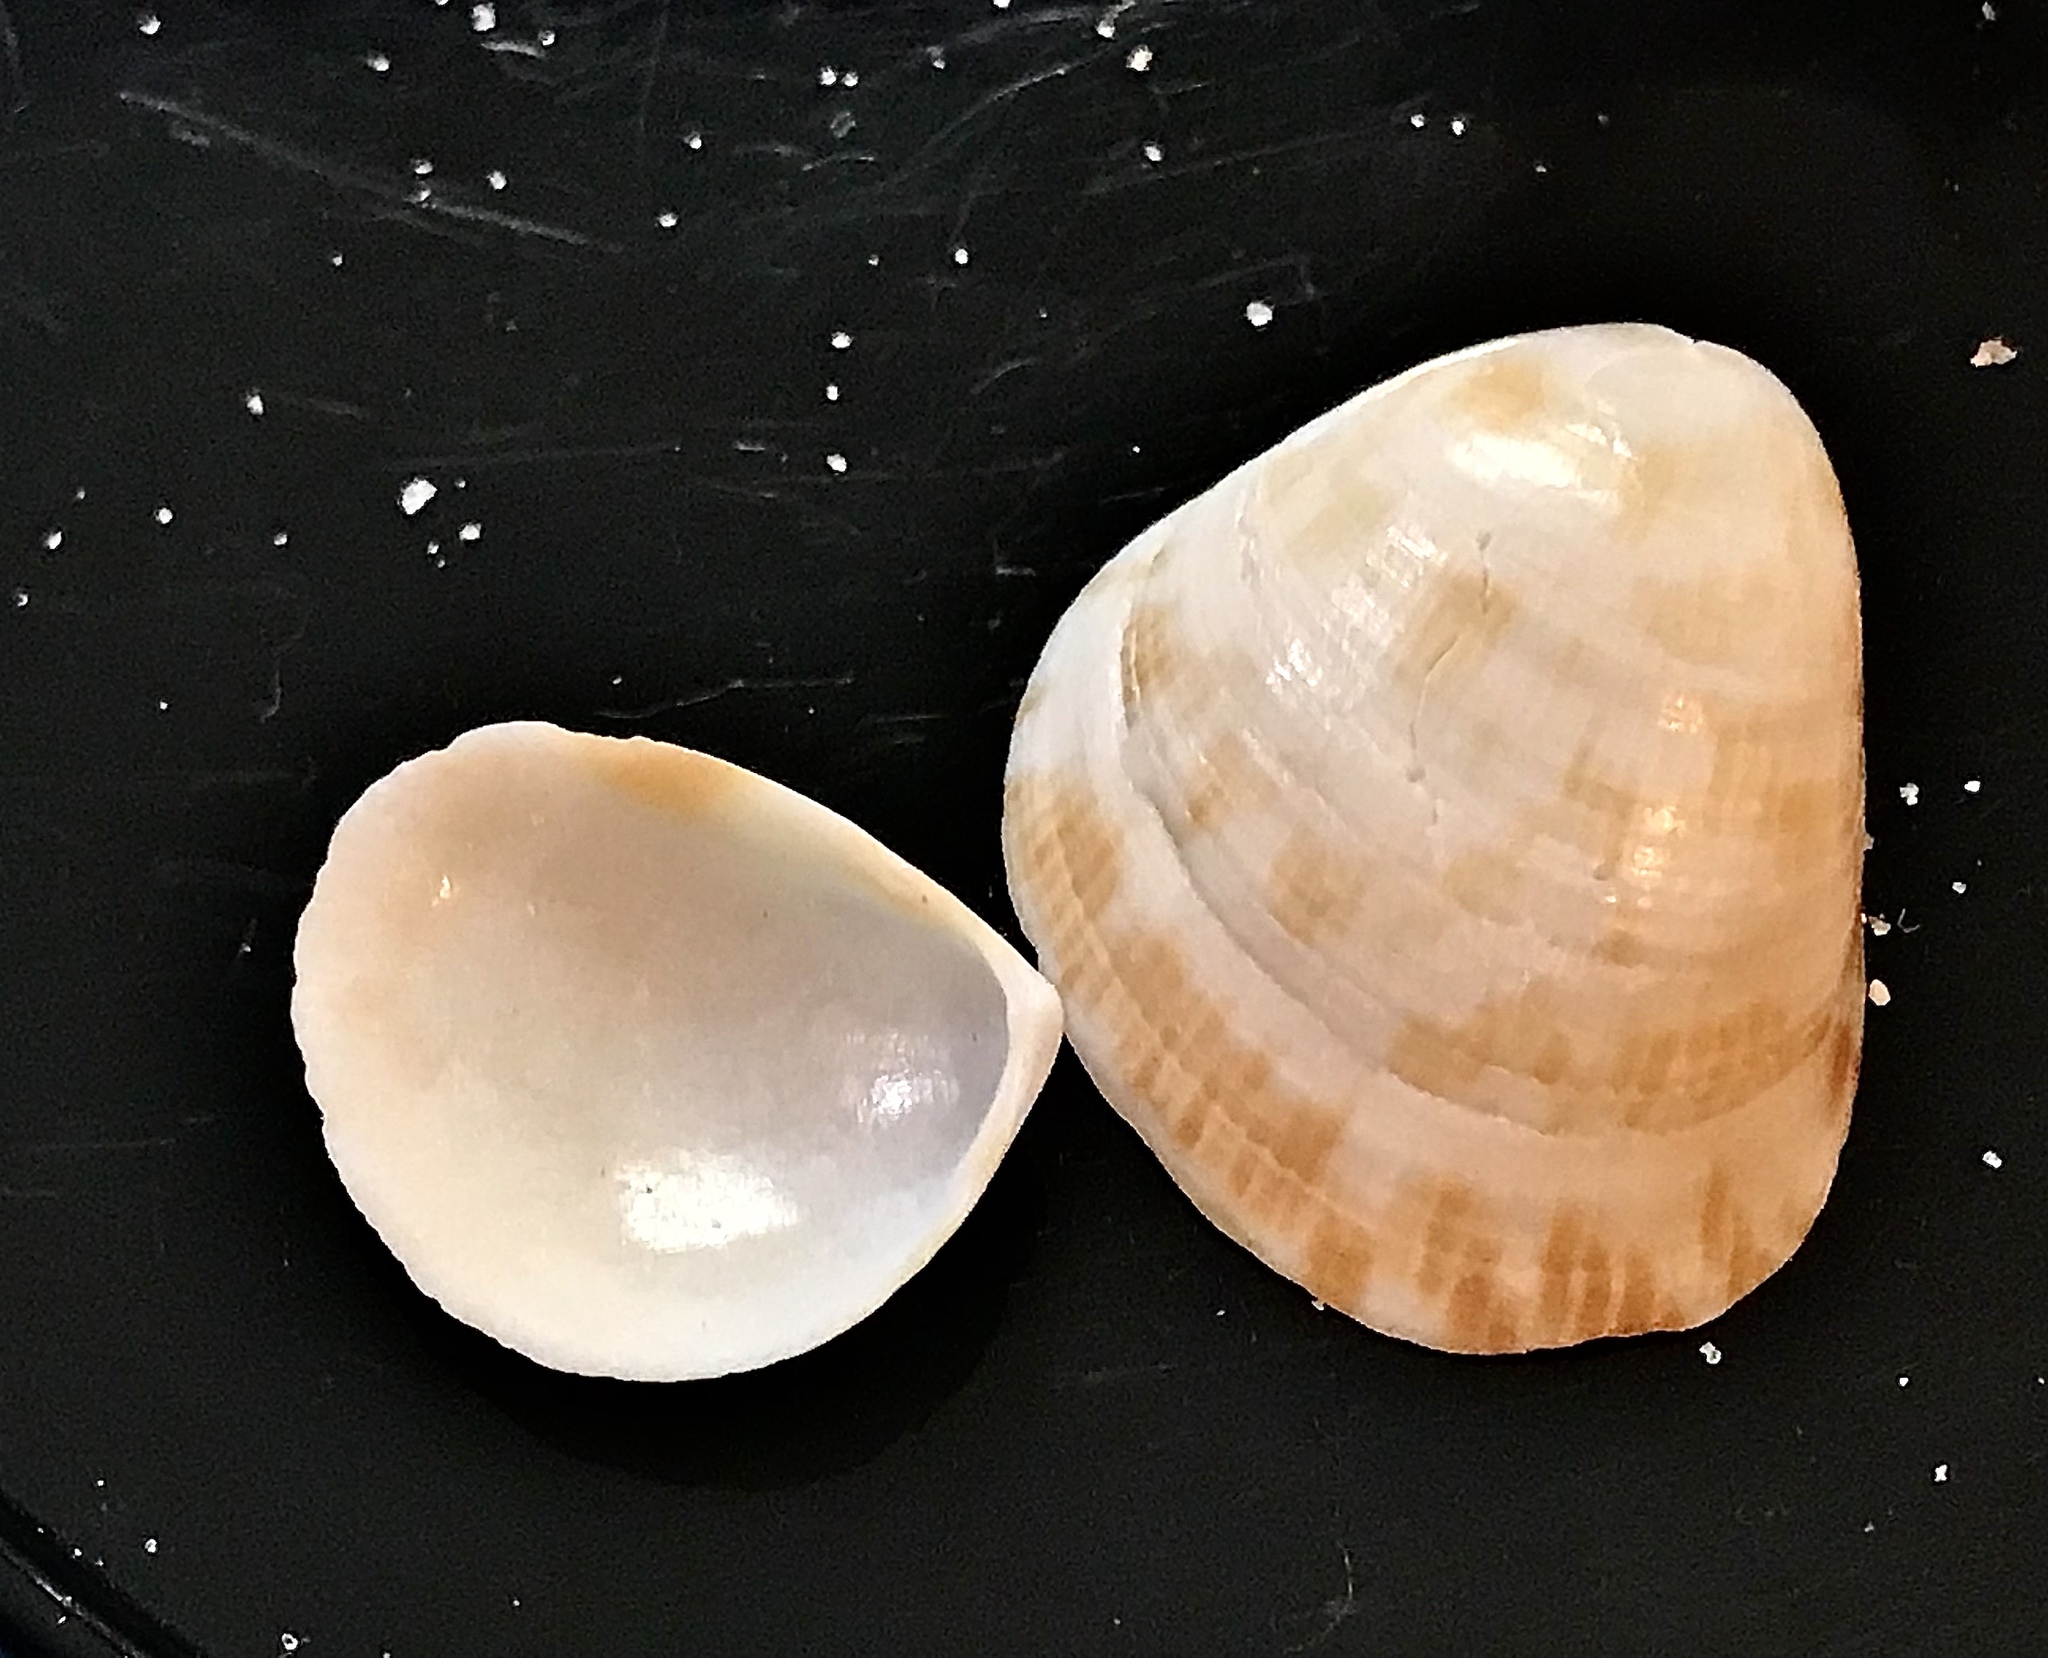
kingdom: Animalia
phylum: Mollusca
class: Bivalvia
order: Cardiida
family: Cardiidae
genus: Laevicardium
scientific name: Laevicardium pictum
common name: Painted eggcockle
